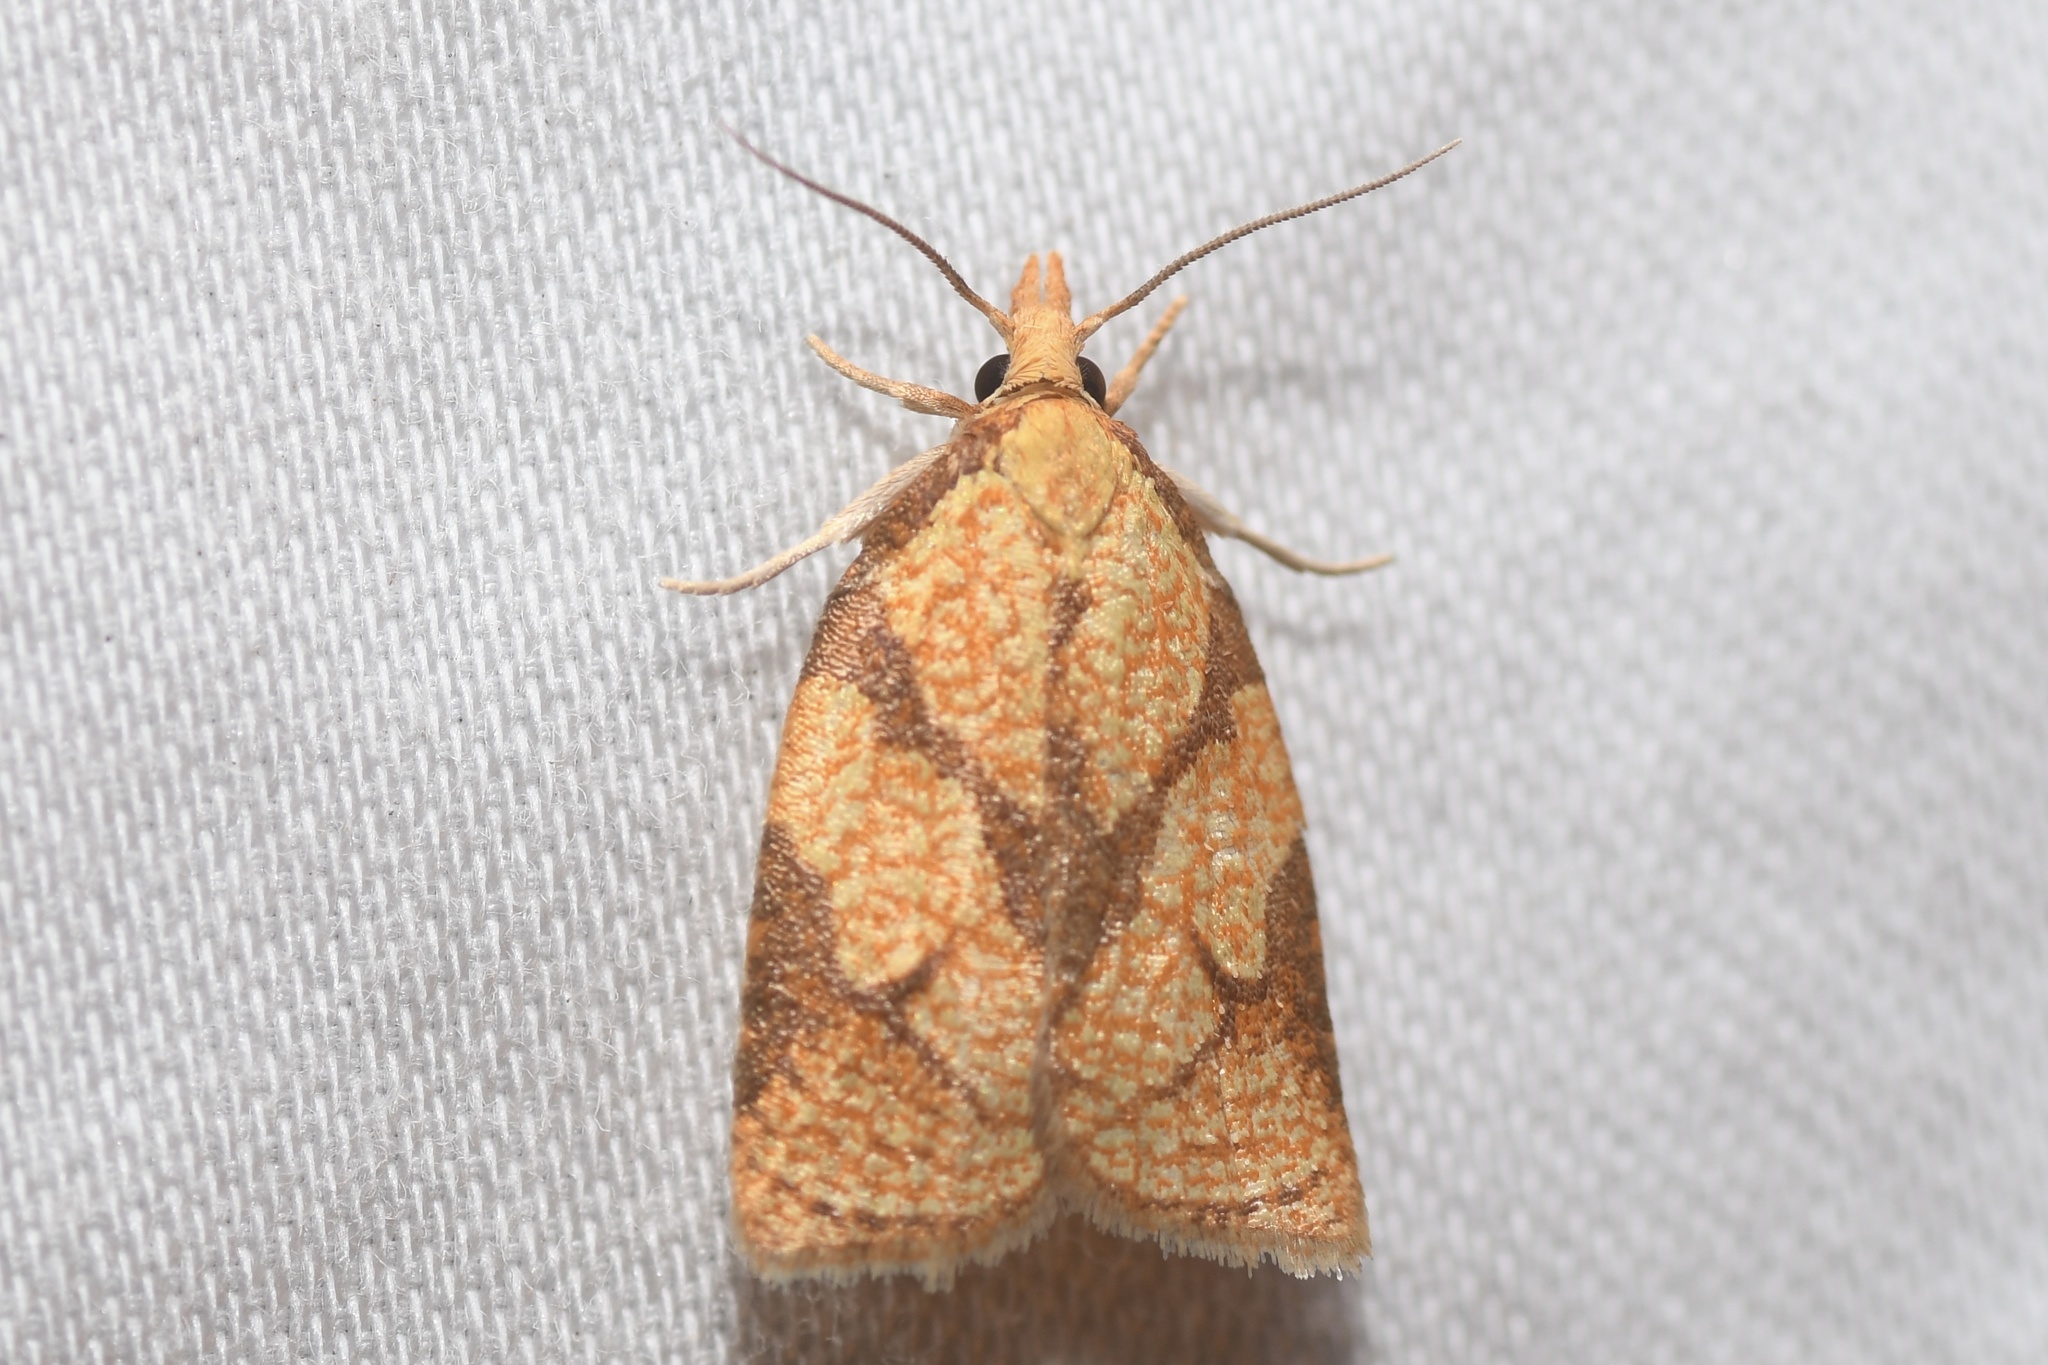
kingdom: Animalia
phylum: Arthropoda
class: Insecta
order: Lepidoptera
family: Tortricidae
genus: Cenopis
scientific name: Cenopis reticulatana
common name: Reticulated fruitworm moth
